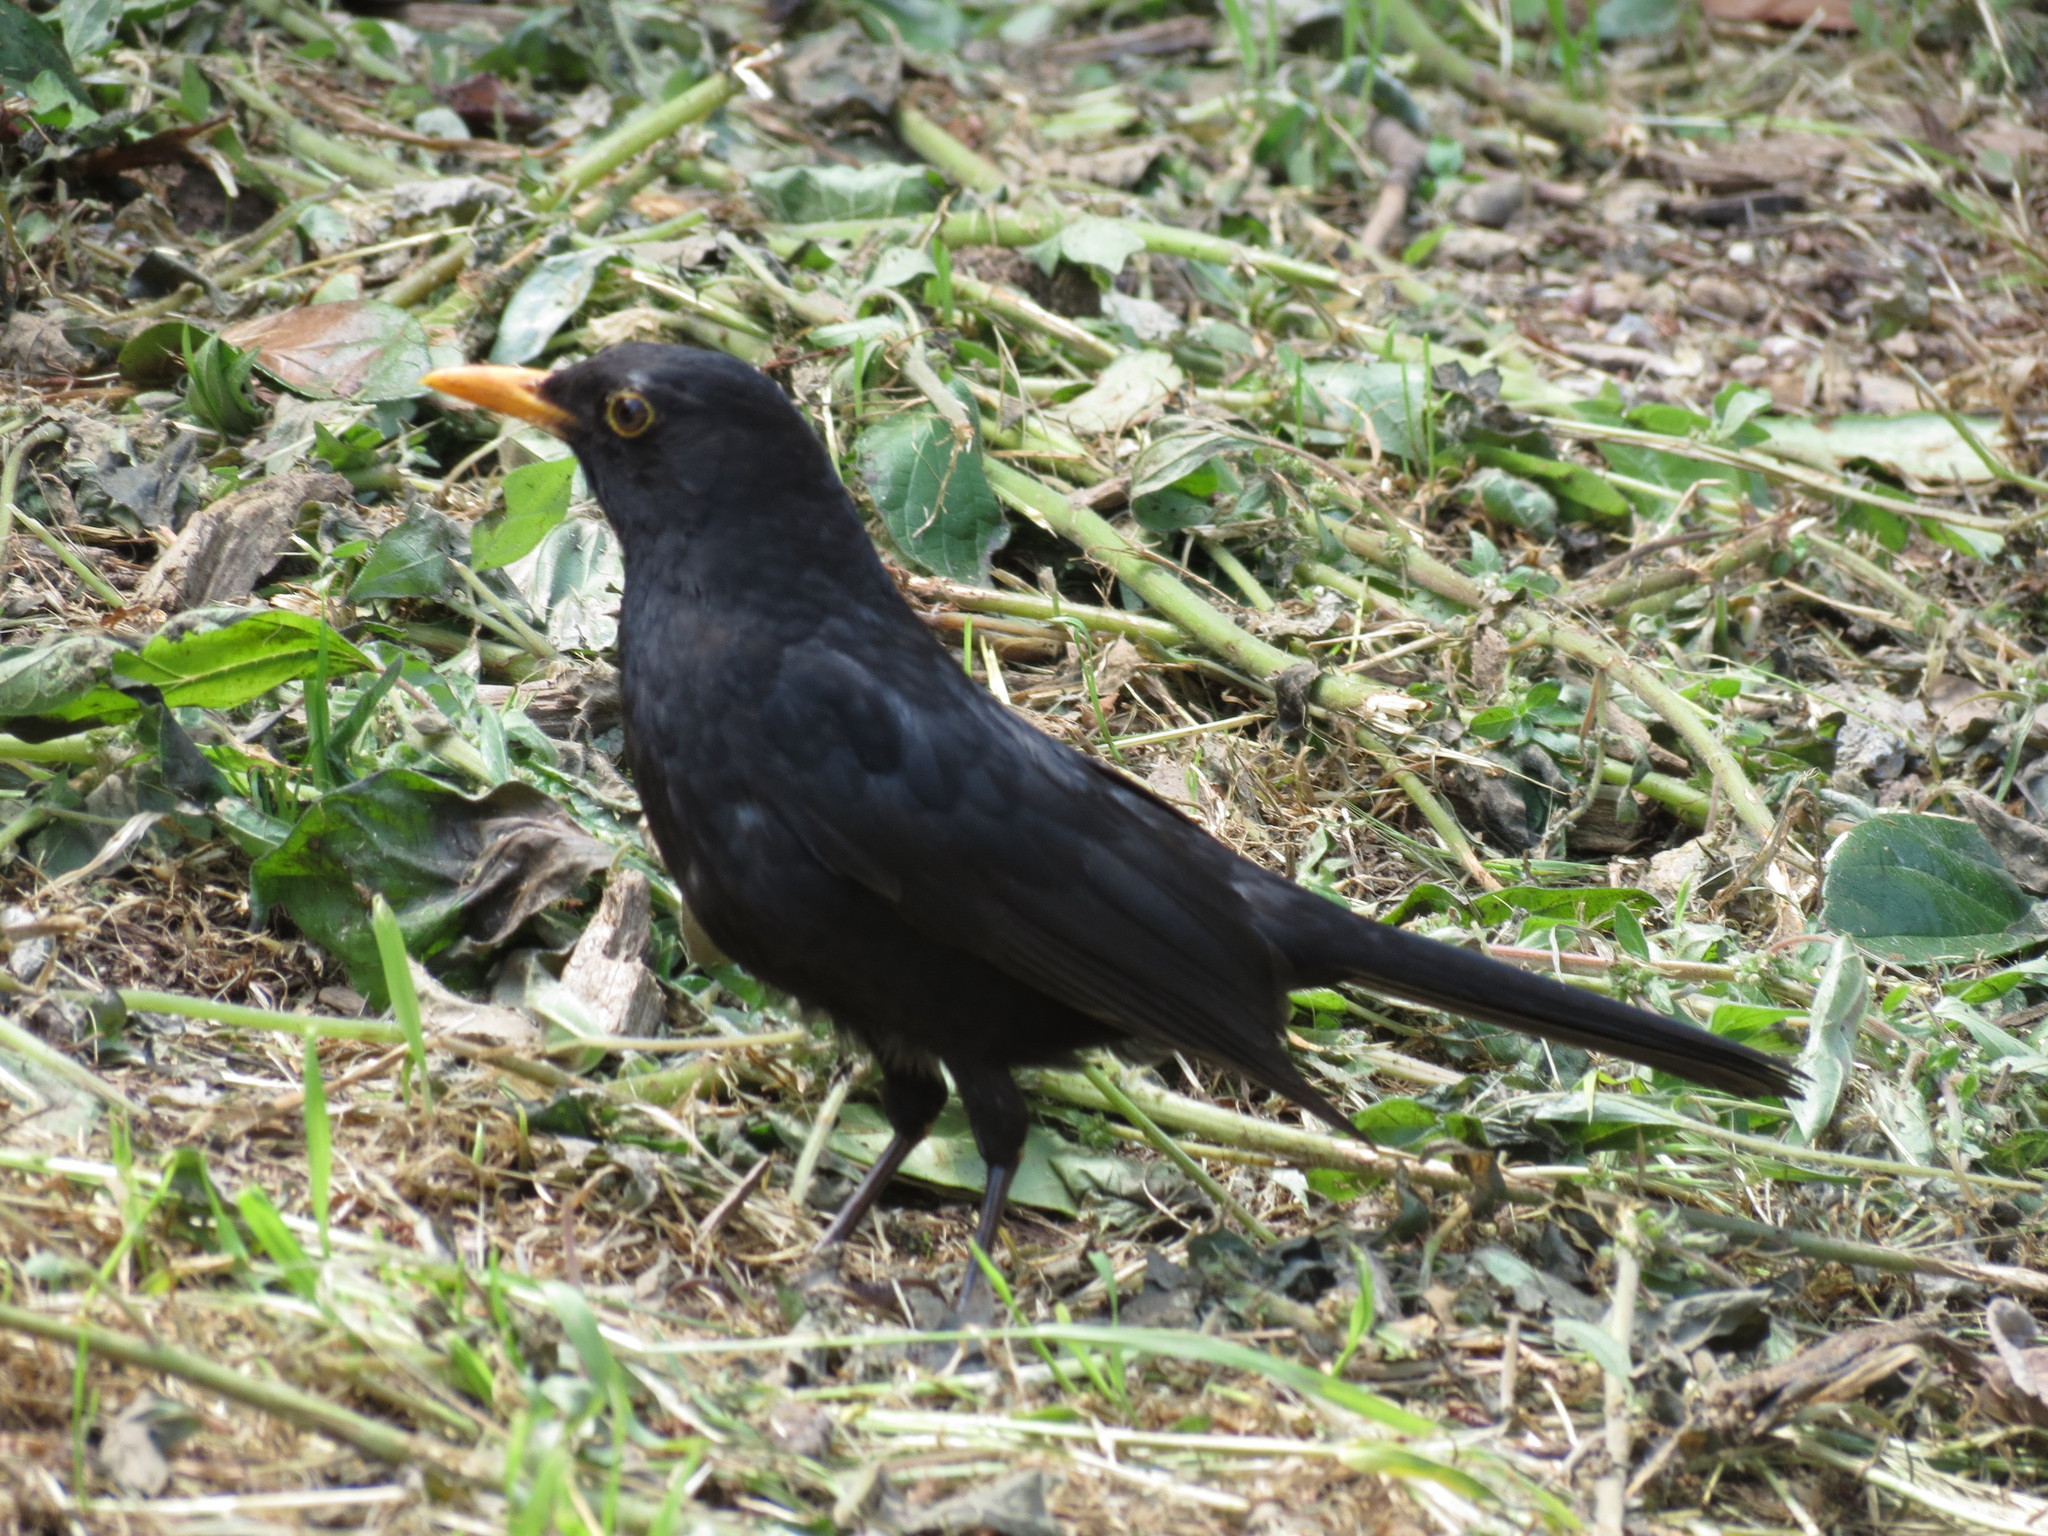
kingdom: Animalia
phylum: Chordata
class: Aves
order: Passeriformes
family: Turdidae
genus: Turdus
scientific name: Turdus merula
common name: Common blackbird
